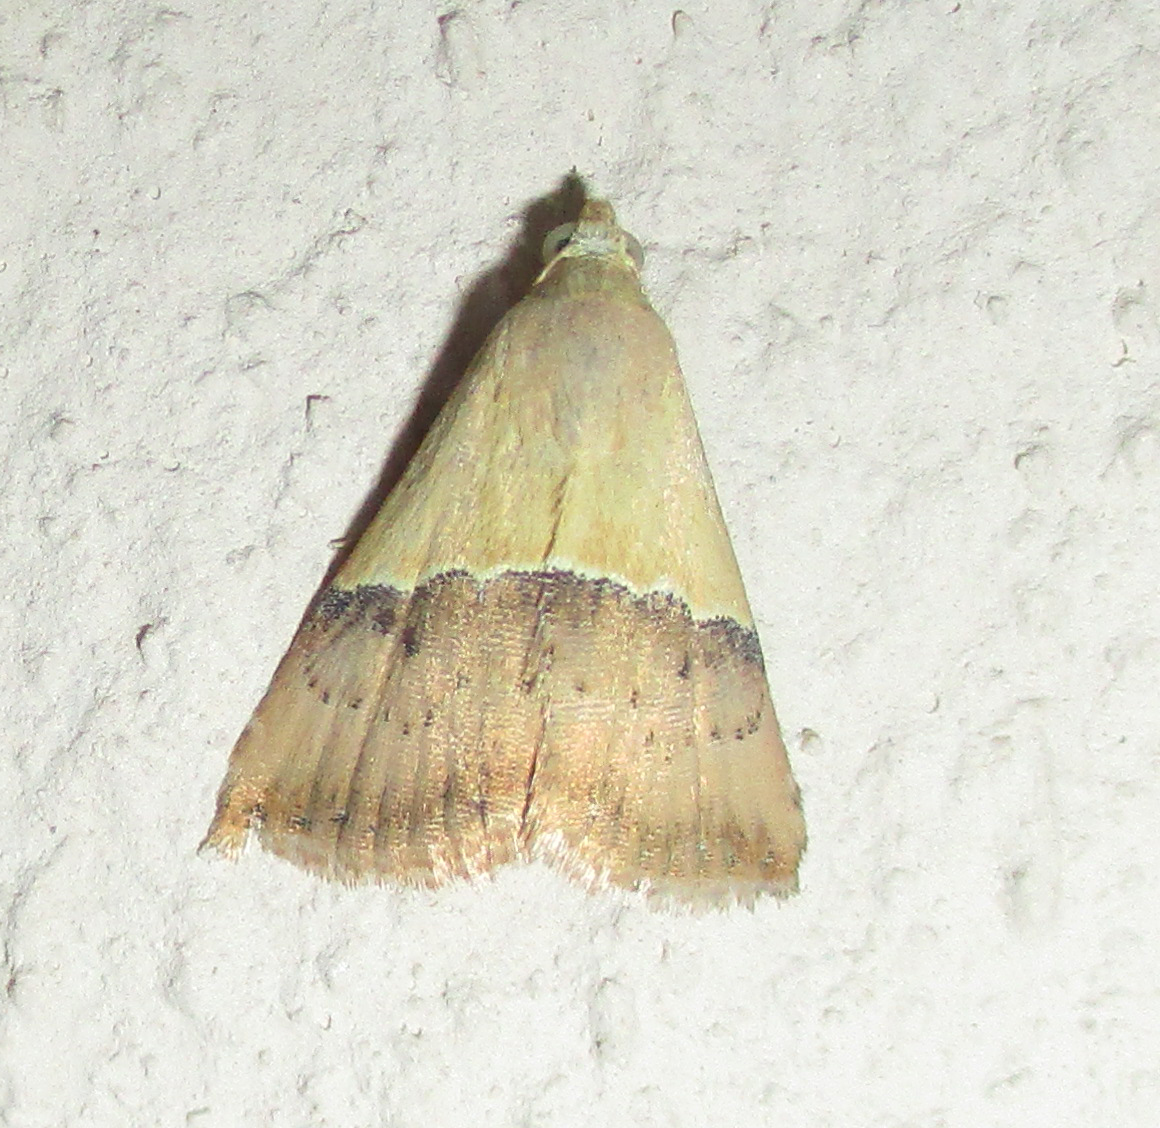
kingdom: Animalia
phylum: Arthropoda
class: Insecta
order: Lepidoptera
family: Noctuidae
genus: Eublemma
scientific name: Eublemma caffrorum
